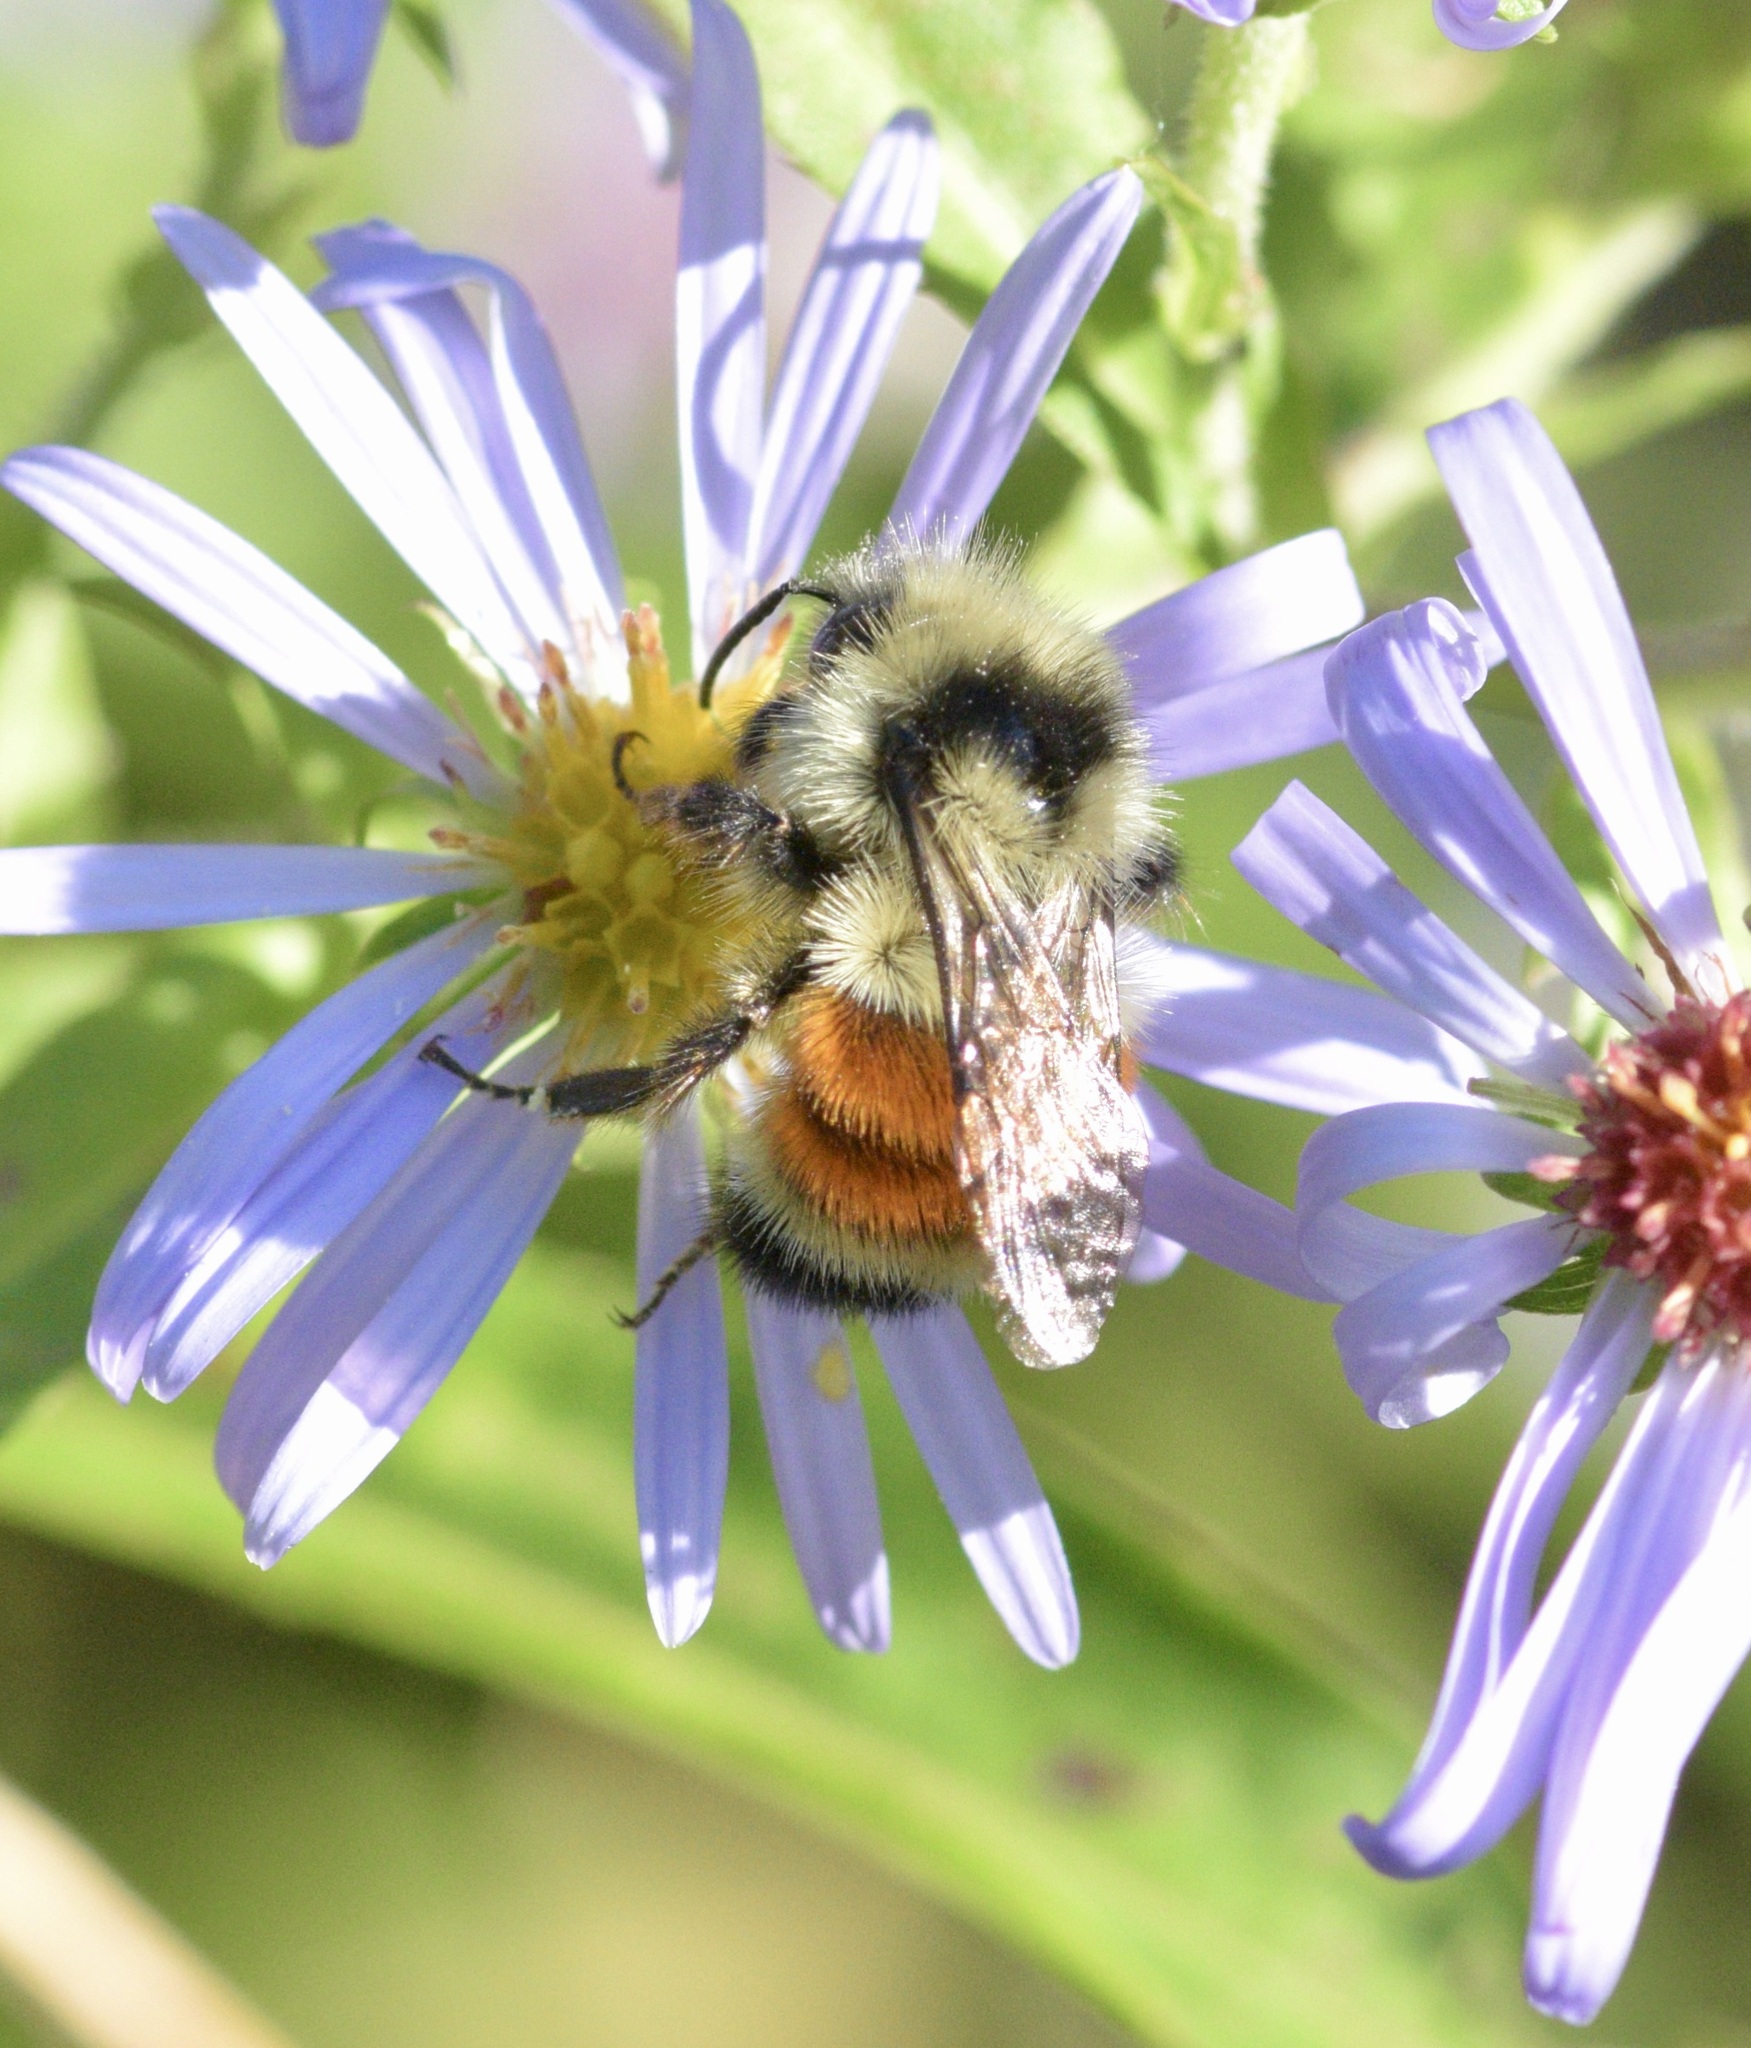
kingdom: Animalia
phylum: Arthropoda
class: Insecta
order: Hymenoptera
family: Apidae
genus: Bombus
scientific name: Bombus ternarius
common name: Tri-colored bumble bee
